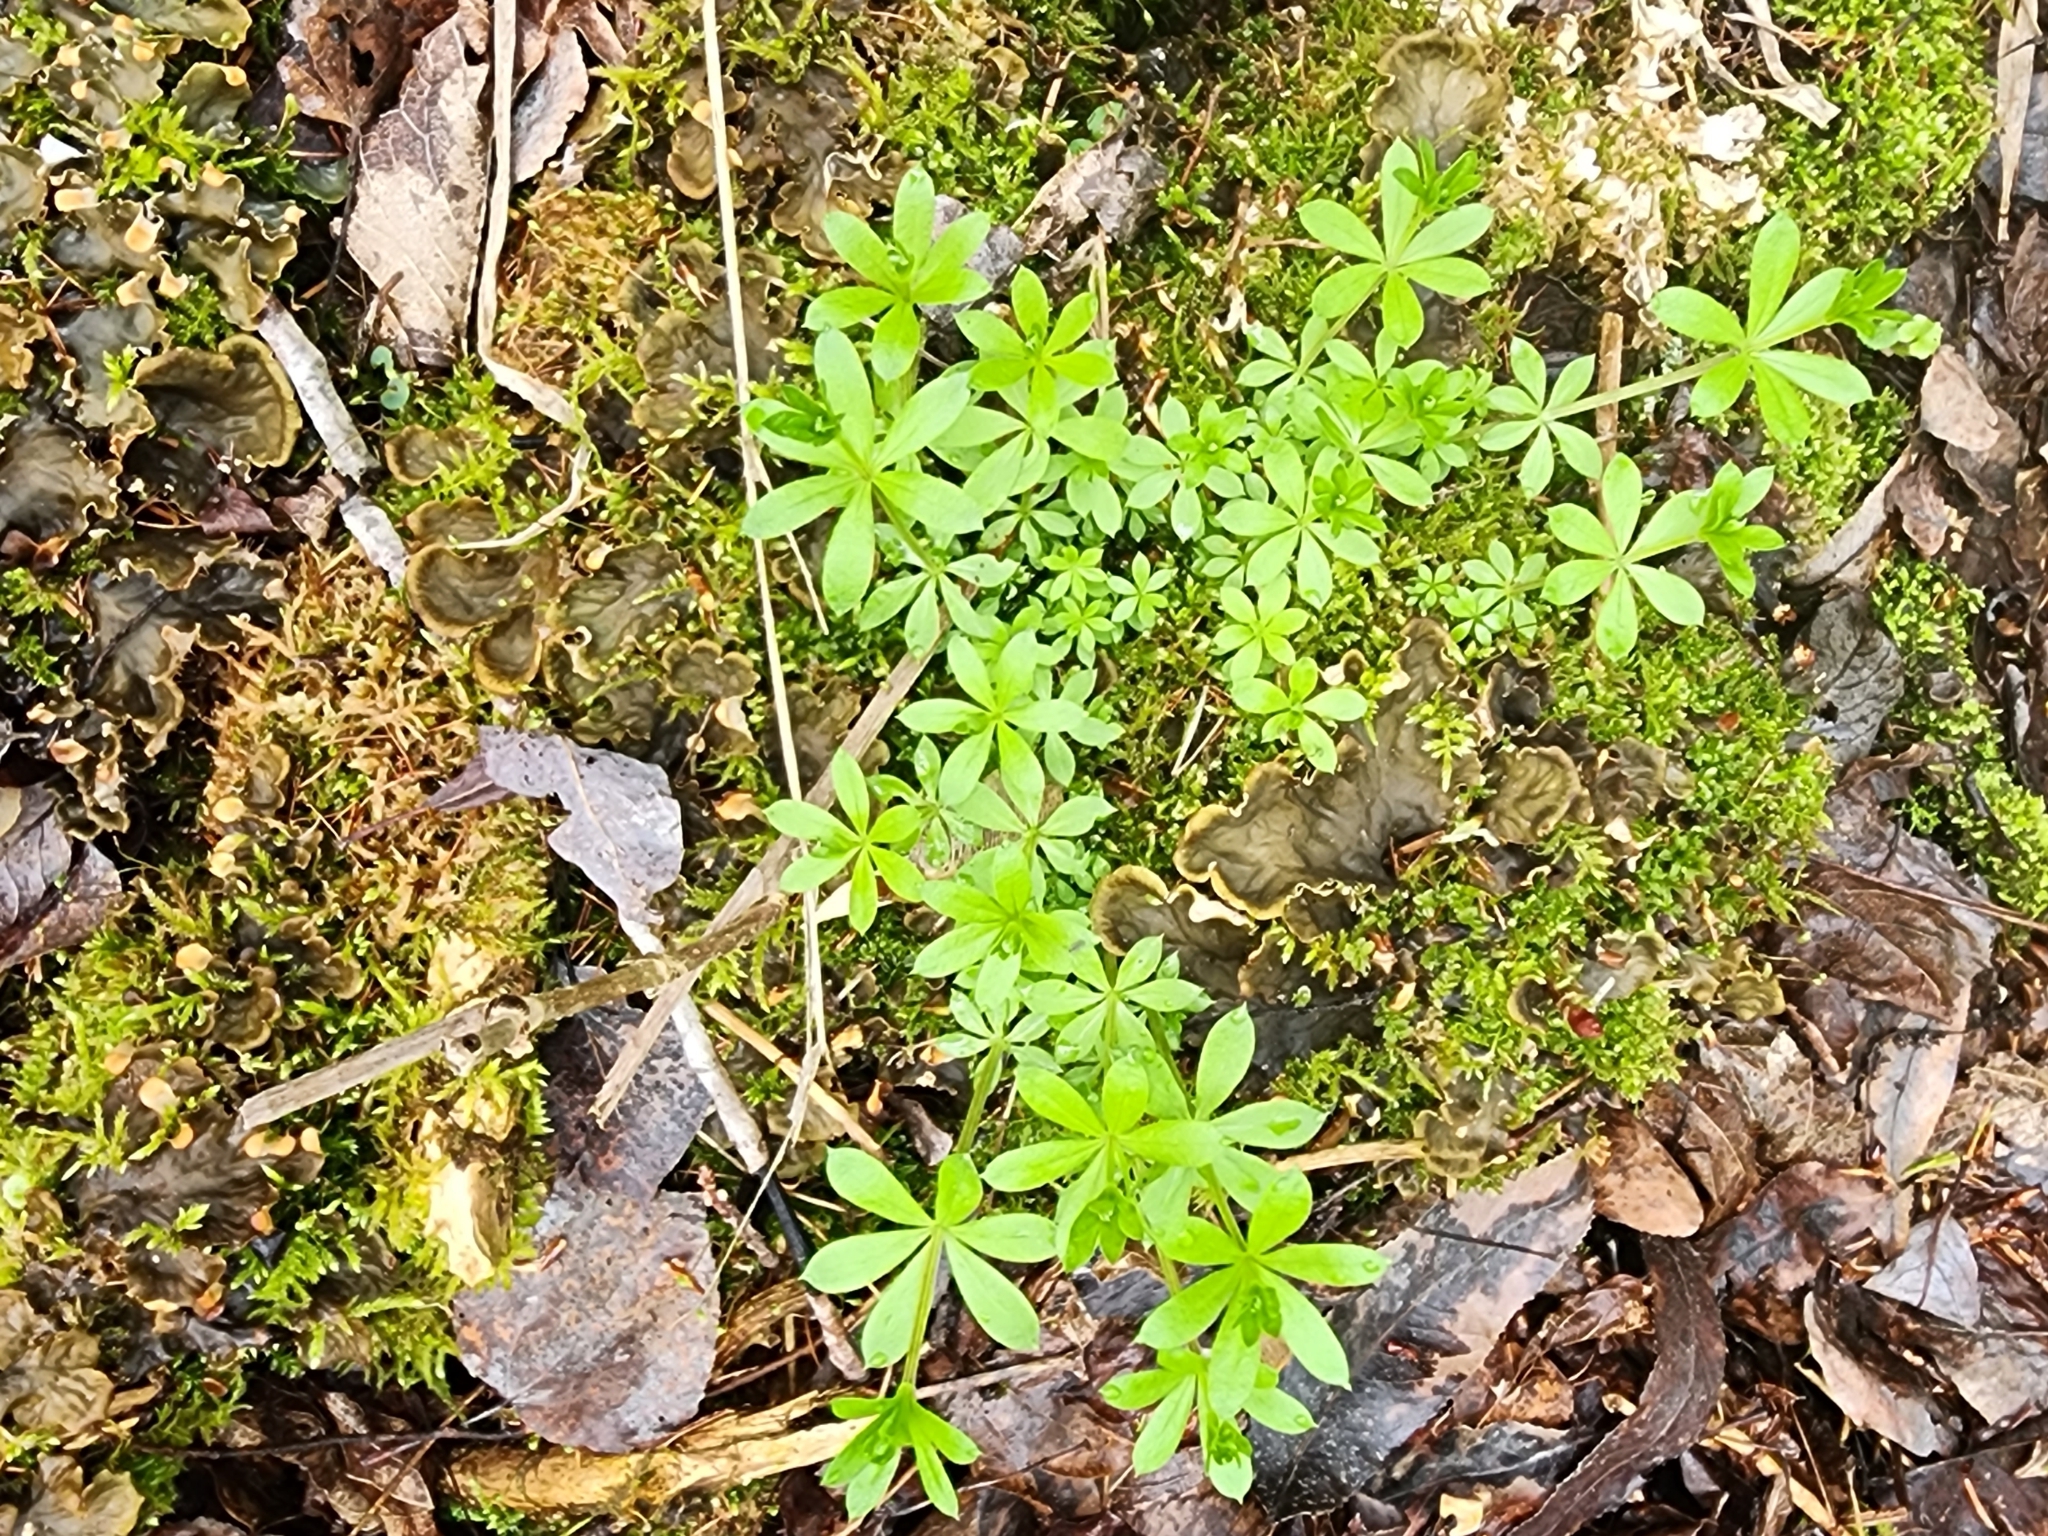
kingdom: Plantae
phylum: Tracheophyta
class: Magnoliopsida
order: Gentianales
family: Rubiaceae
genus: Galium
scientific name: Galium triflorum
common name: Fragrant bedstraw
